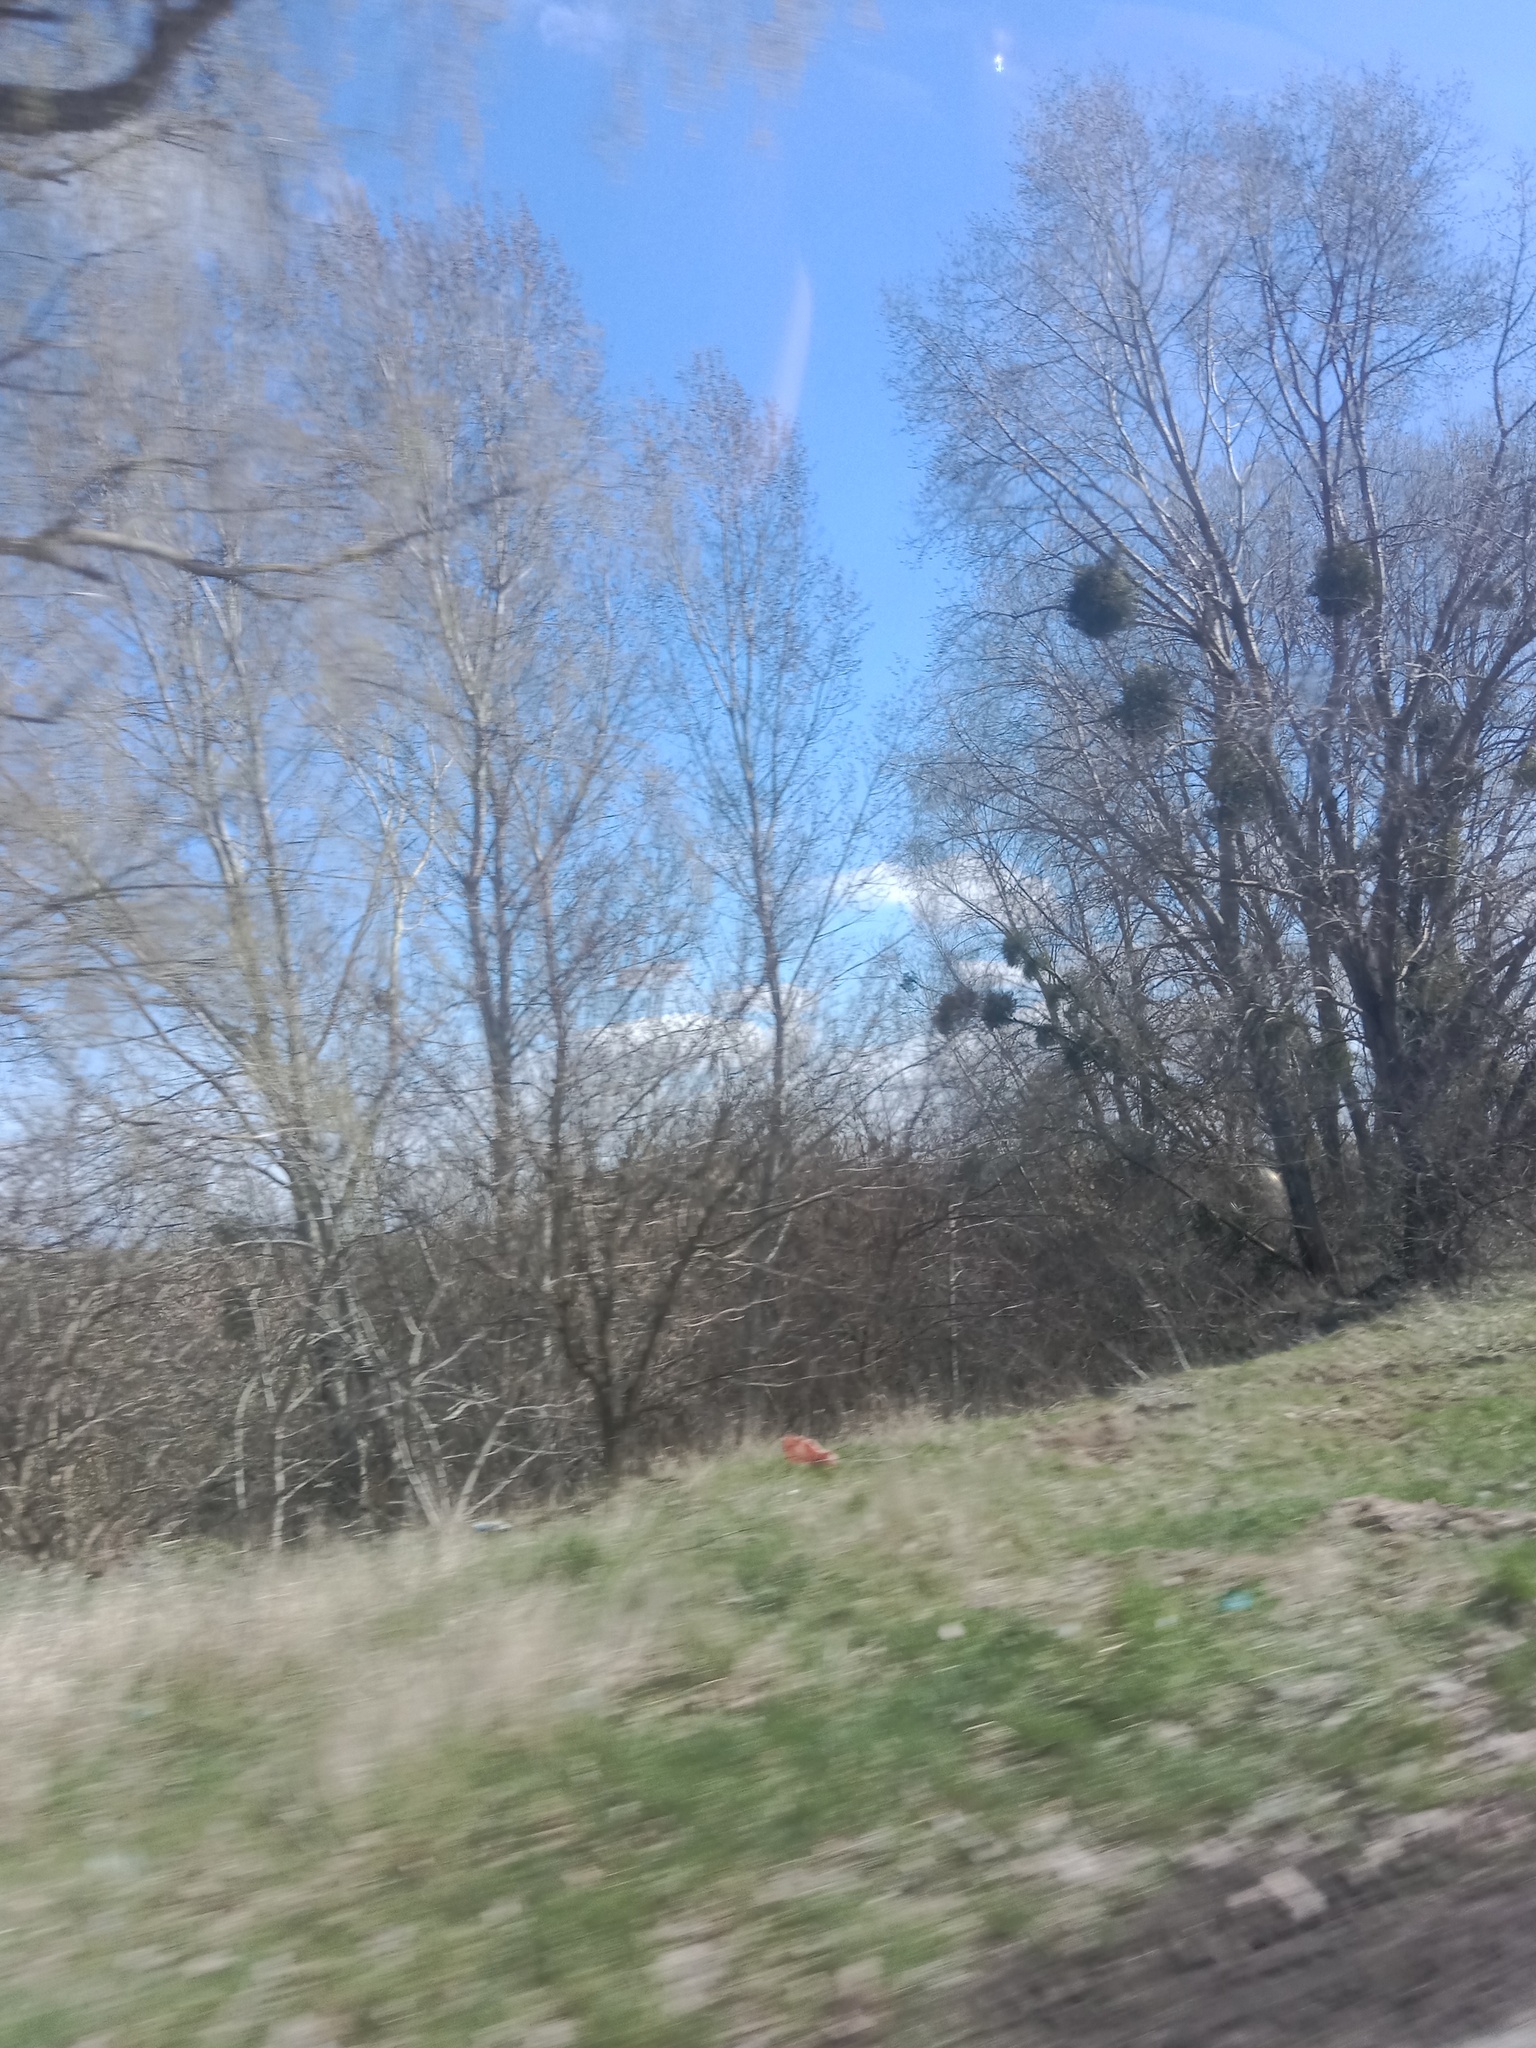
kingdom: Plantae
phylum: Tracheophyta
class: Magnoliopsida
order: Santalales
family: Viscaceae
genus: Viscum
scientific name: Viscum album
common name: Mistletoe
